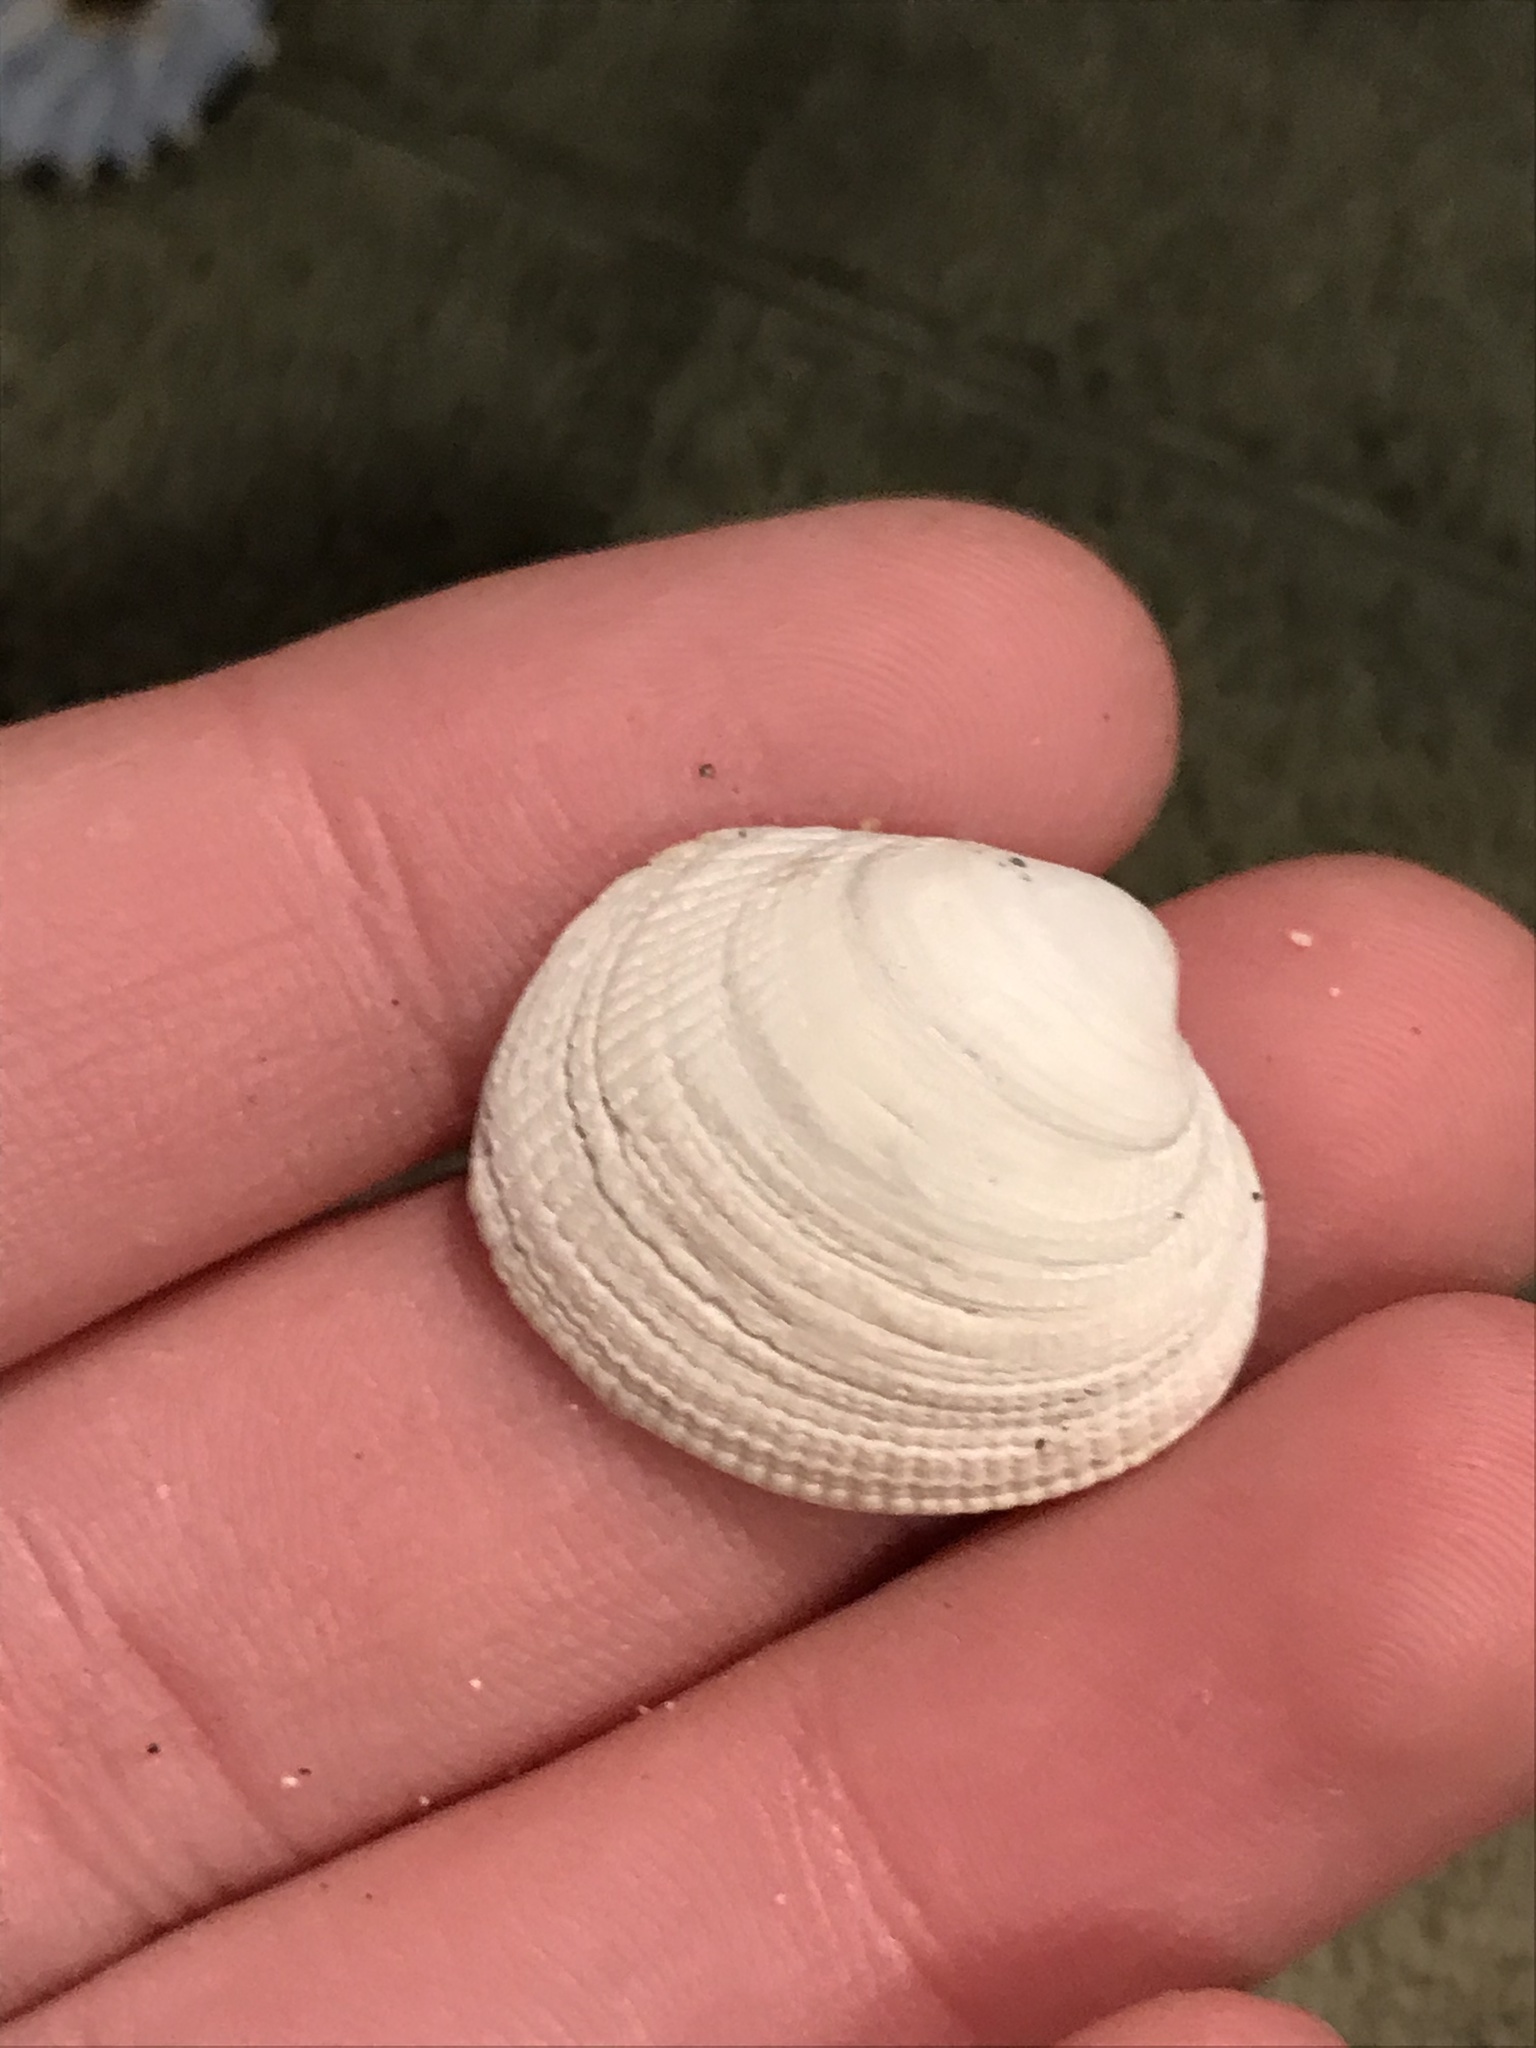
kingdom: Animalia
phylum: Mollusca
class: Bivalvia
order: Venerida
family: Veneridae
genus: Leukoma
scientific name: Leukoma staminea
